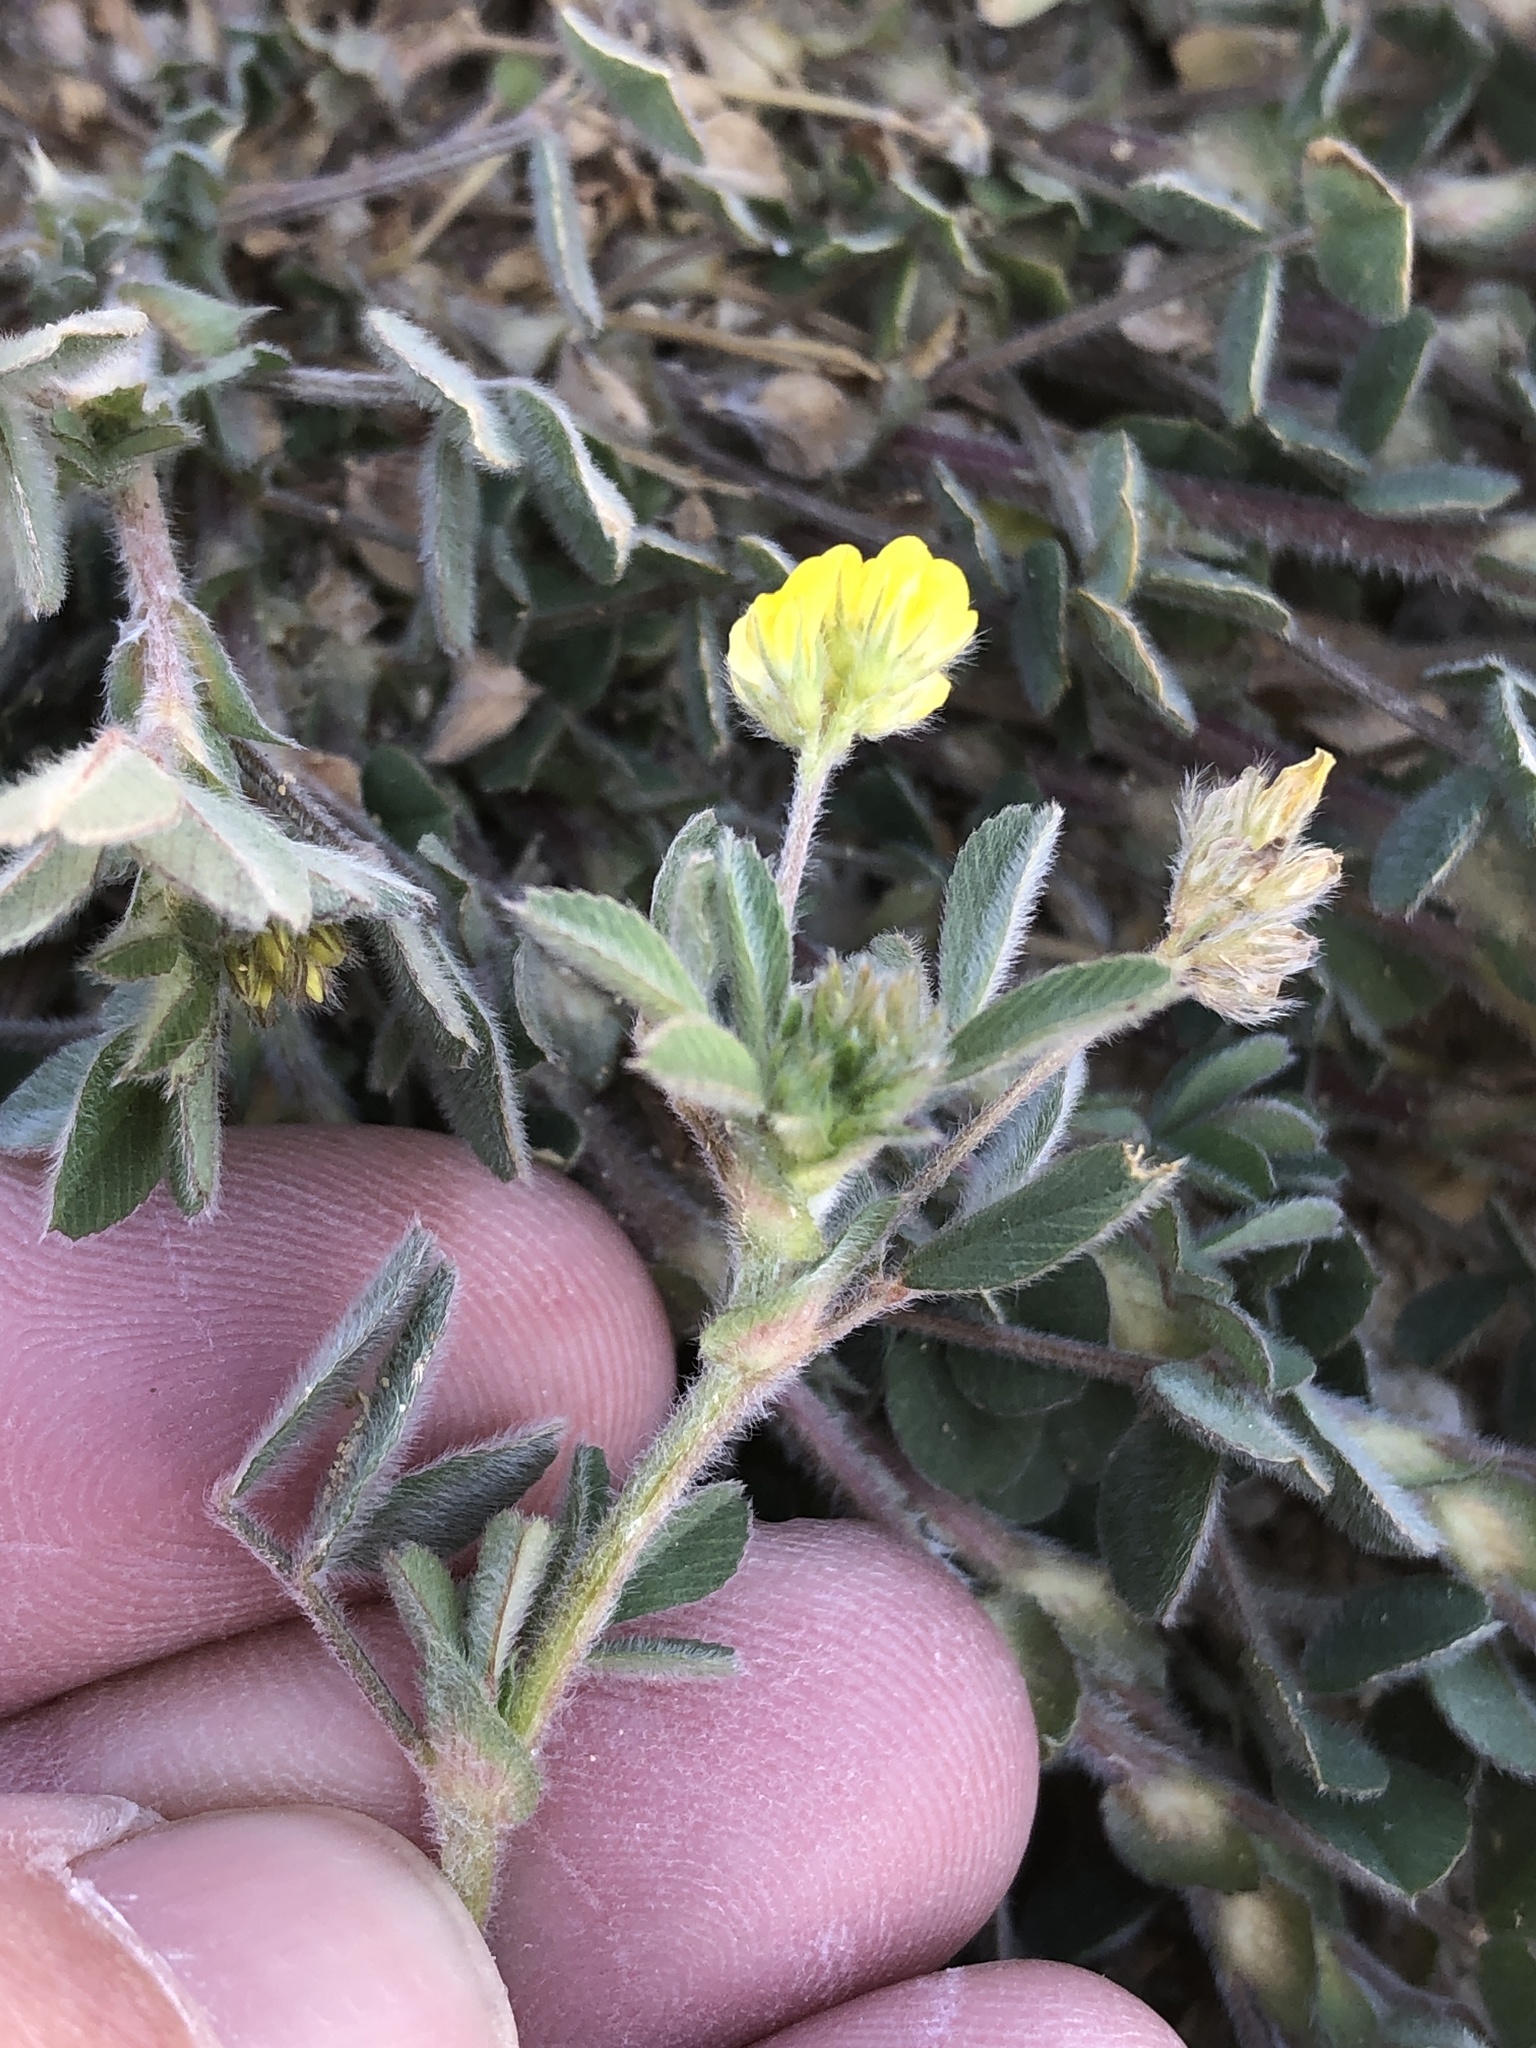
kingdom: Plantae
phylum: Tracheophyta
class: Magnoliopsida
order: Fabales
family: Fabaceae
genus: Medicago
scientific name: Medicago minima
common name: Little bur-clover
